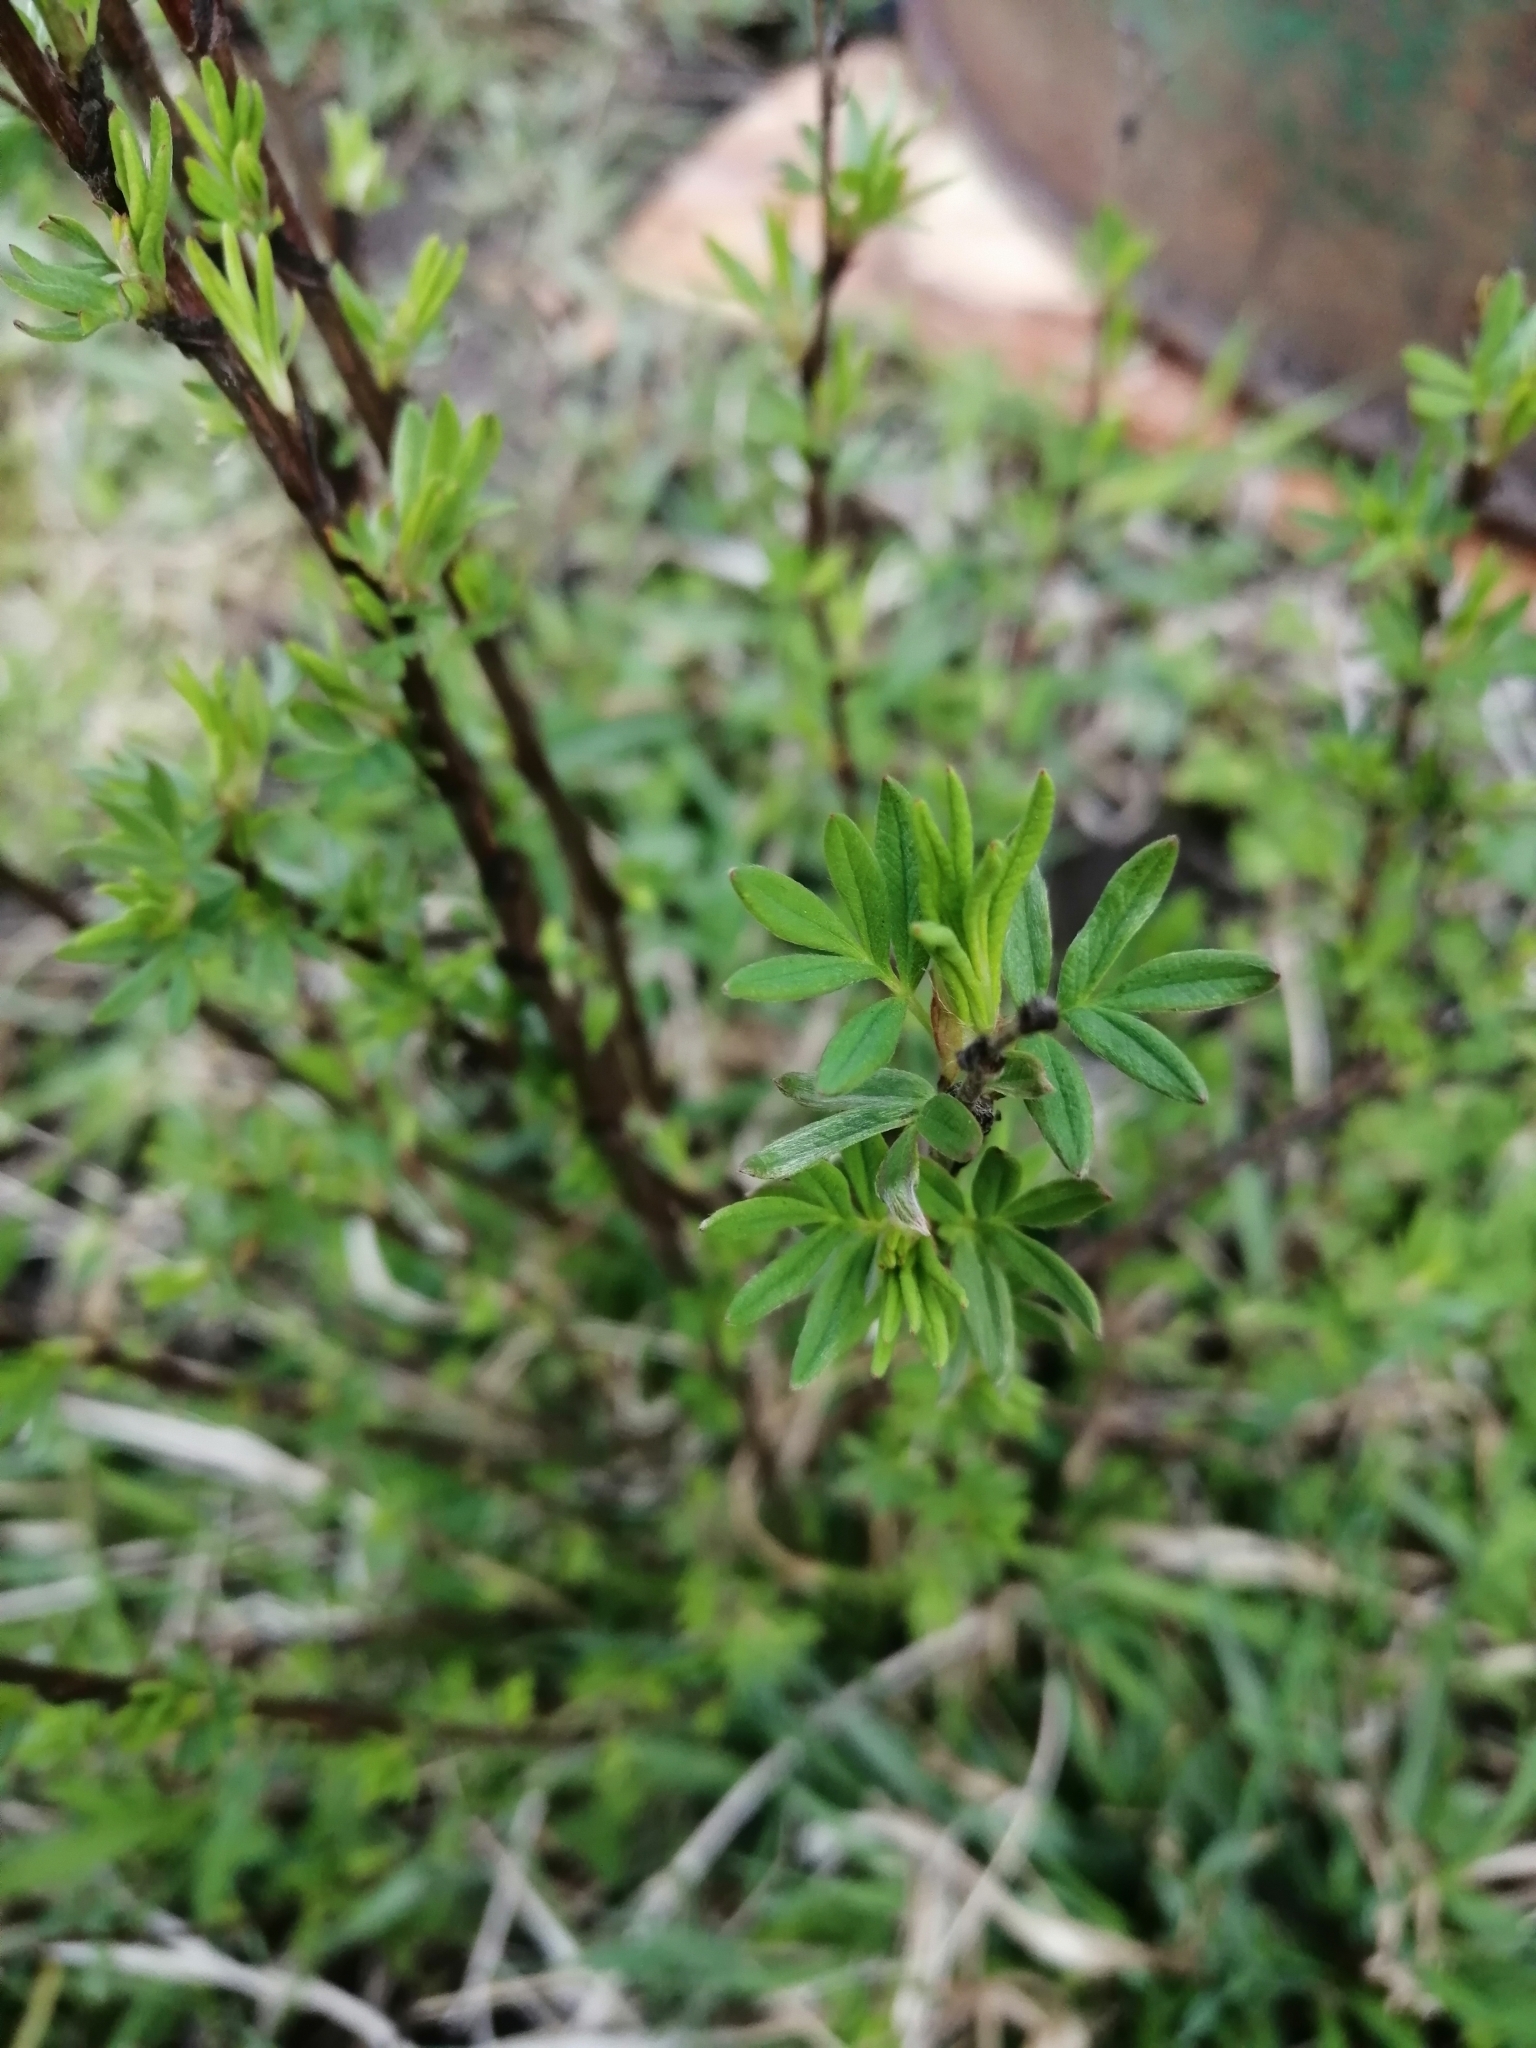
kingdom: Plantae
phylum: Tracheophyta
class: Magnoliopsida
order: Rosales
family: Rosaceae
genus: Dasiphora
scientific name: Dasiphora fruticosa
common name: Shrubby cinquefoil
